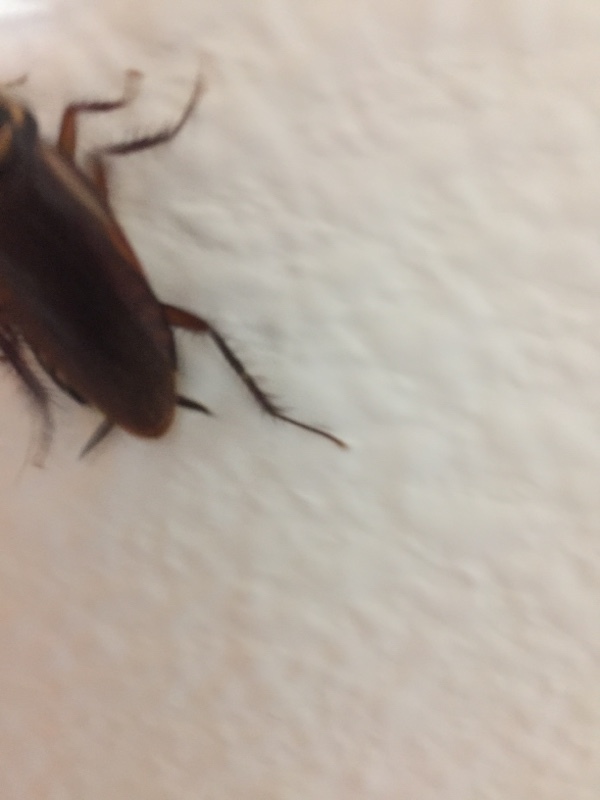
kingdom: Animalia
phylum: Arthropoda
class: Insecta
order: Blattodea
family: Blattidae
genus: Periplaneta
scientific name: Periplaneta australasiae
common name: Australian cockroach
